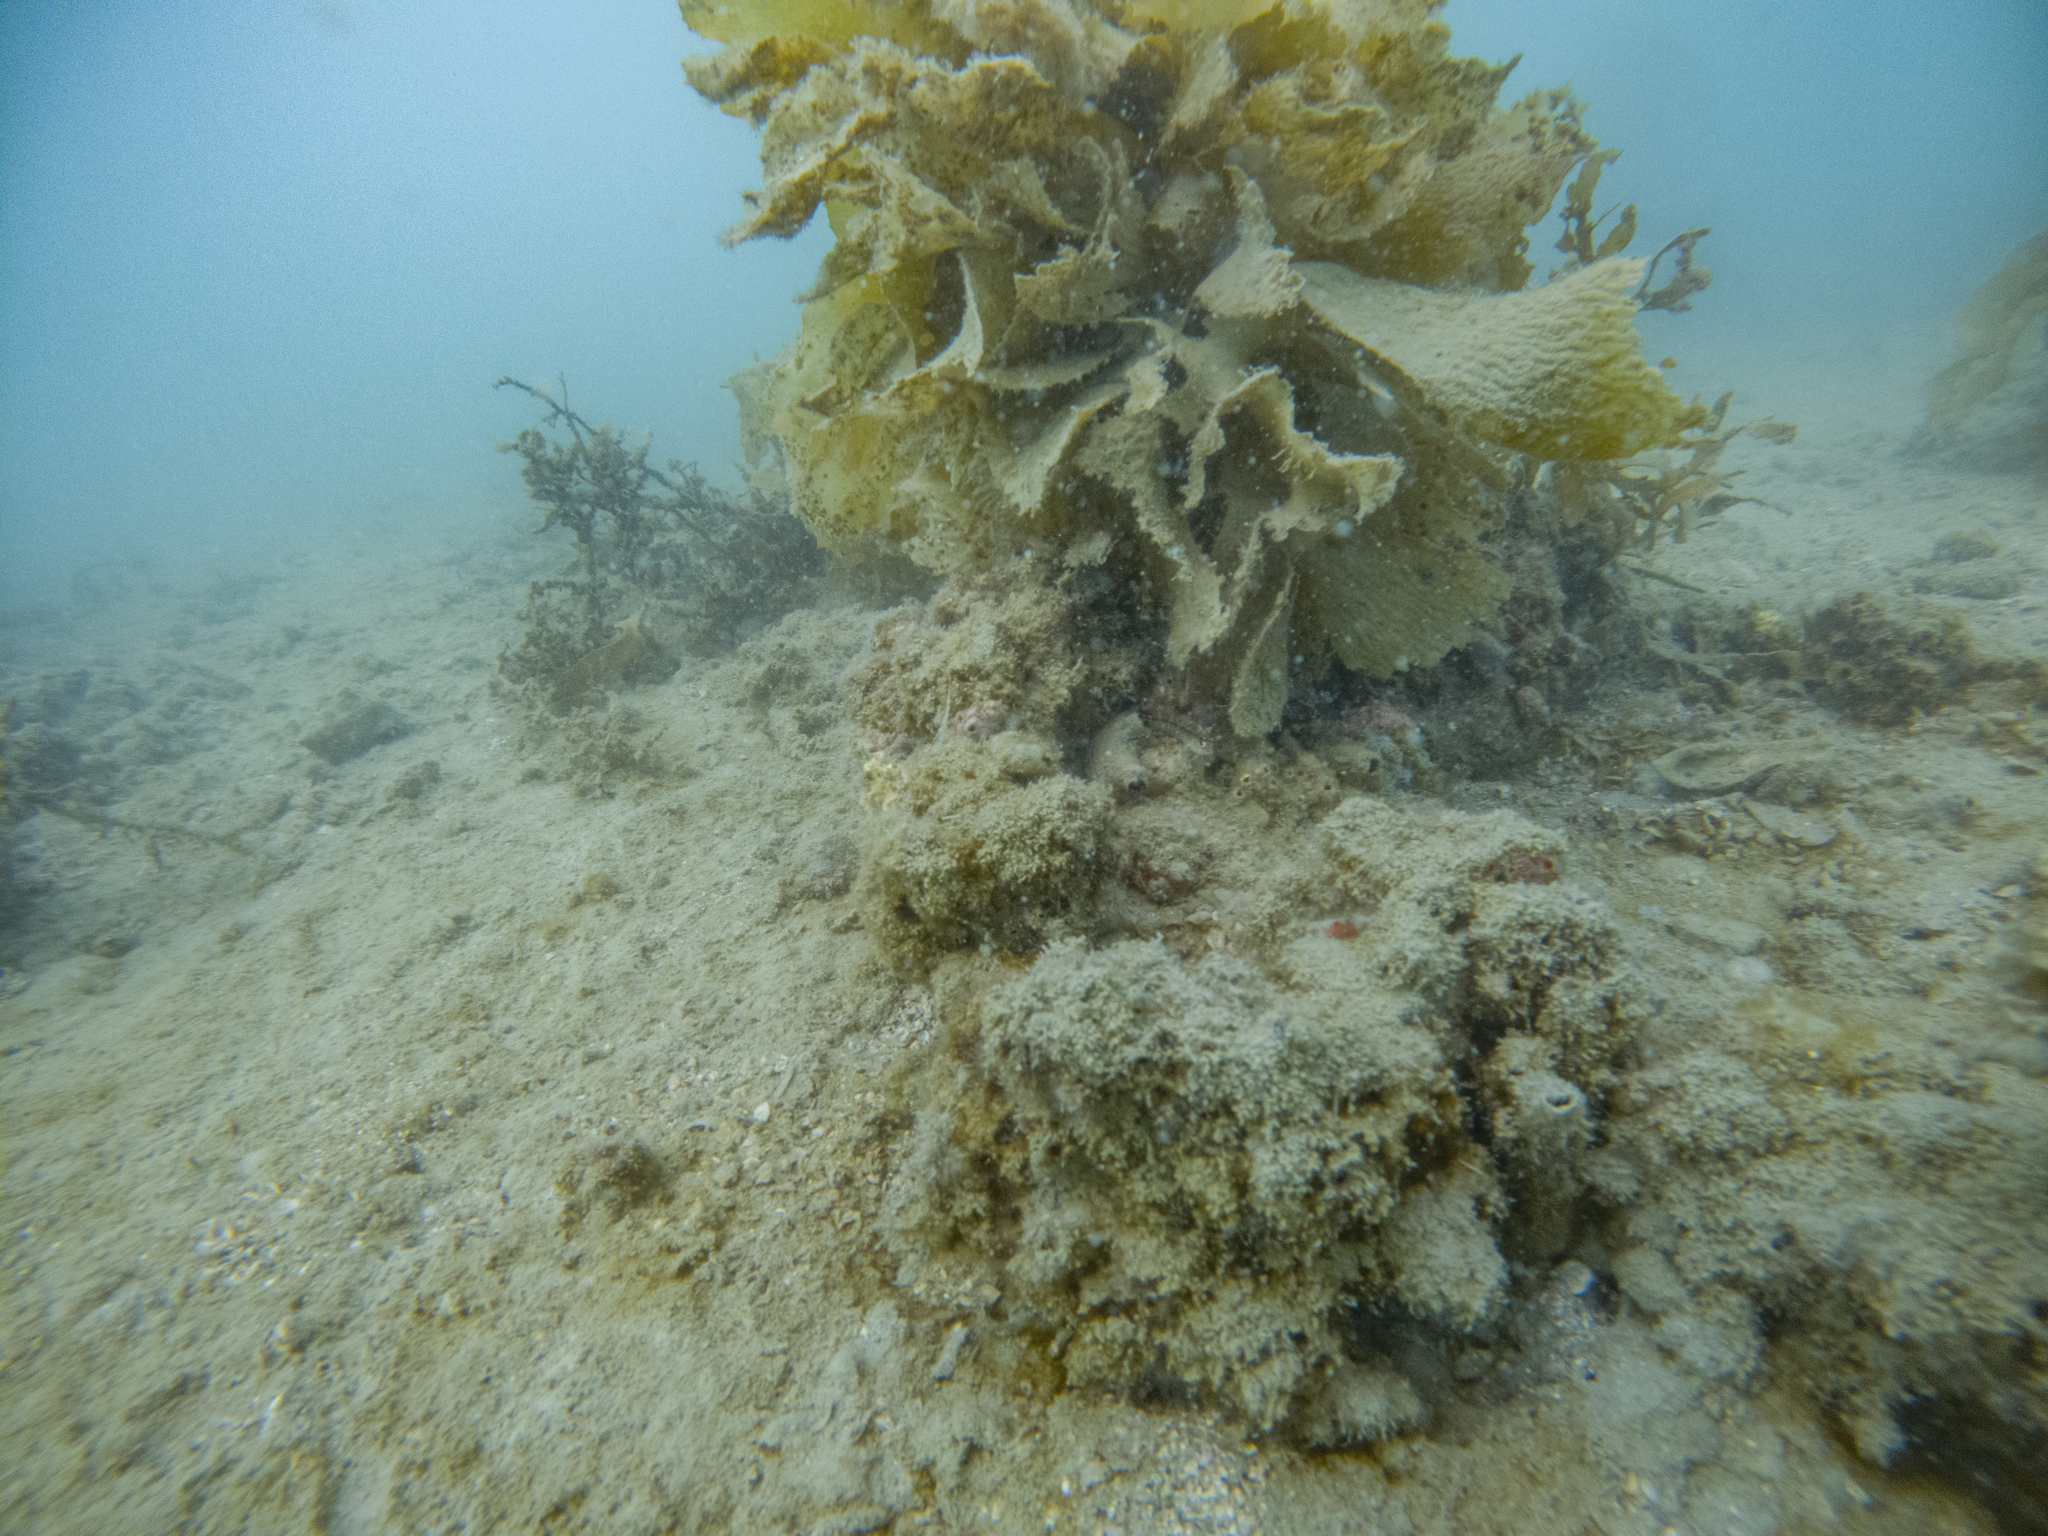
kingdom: Chromista
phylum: Ochrophyta
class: Phaeophyceae
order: Laminariales
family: Lessoniaceae
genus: Ecklonia
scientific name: Ecklonia radiata
